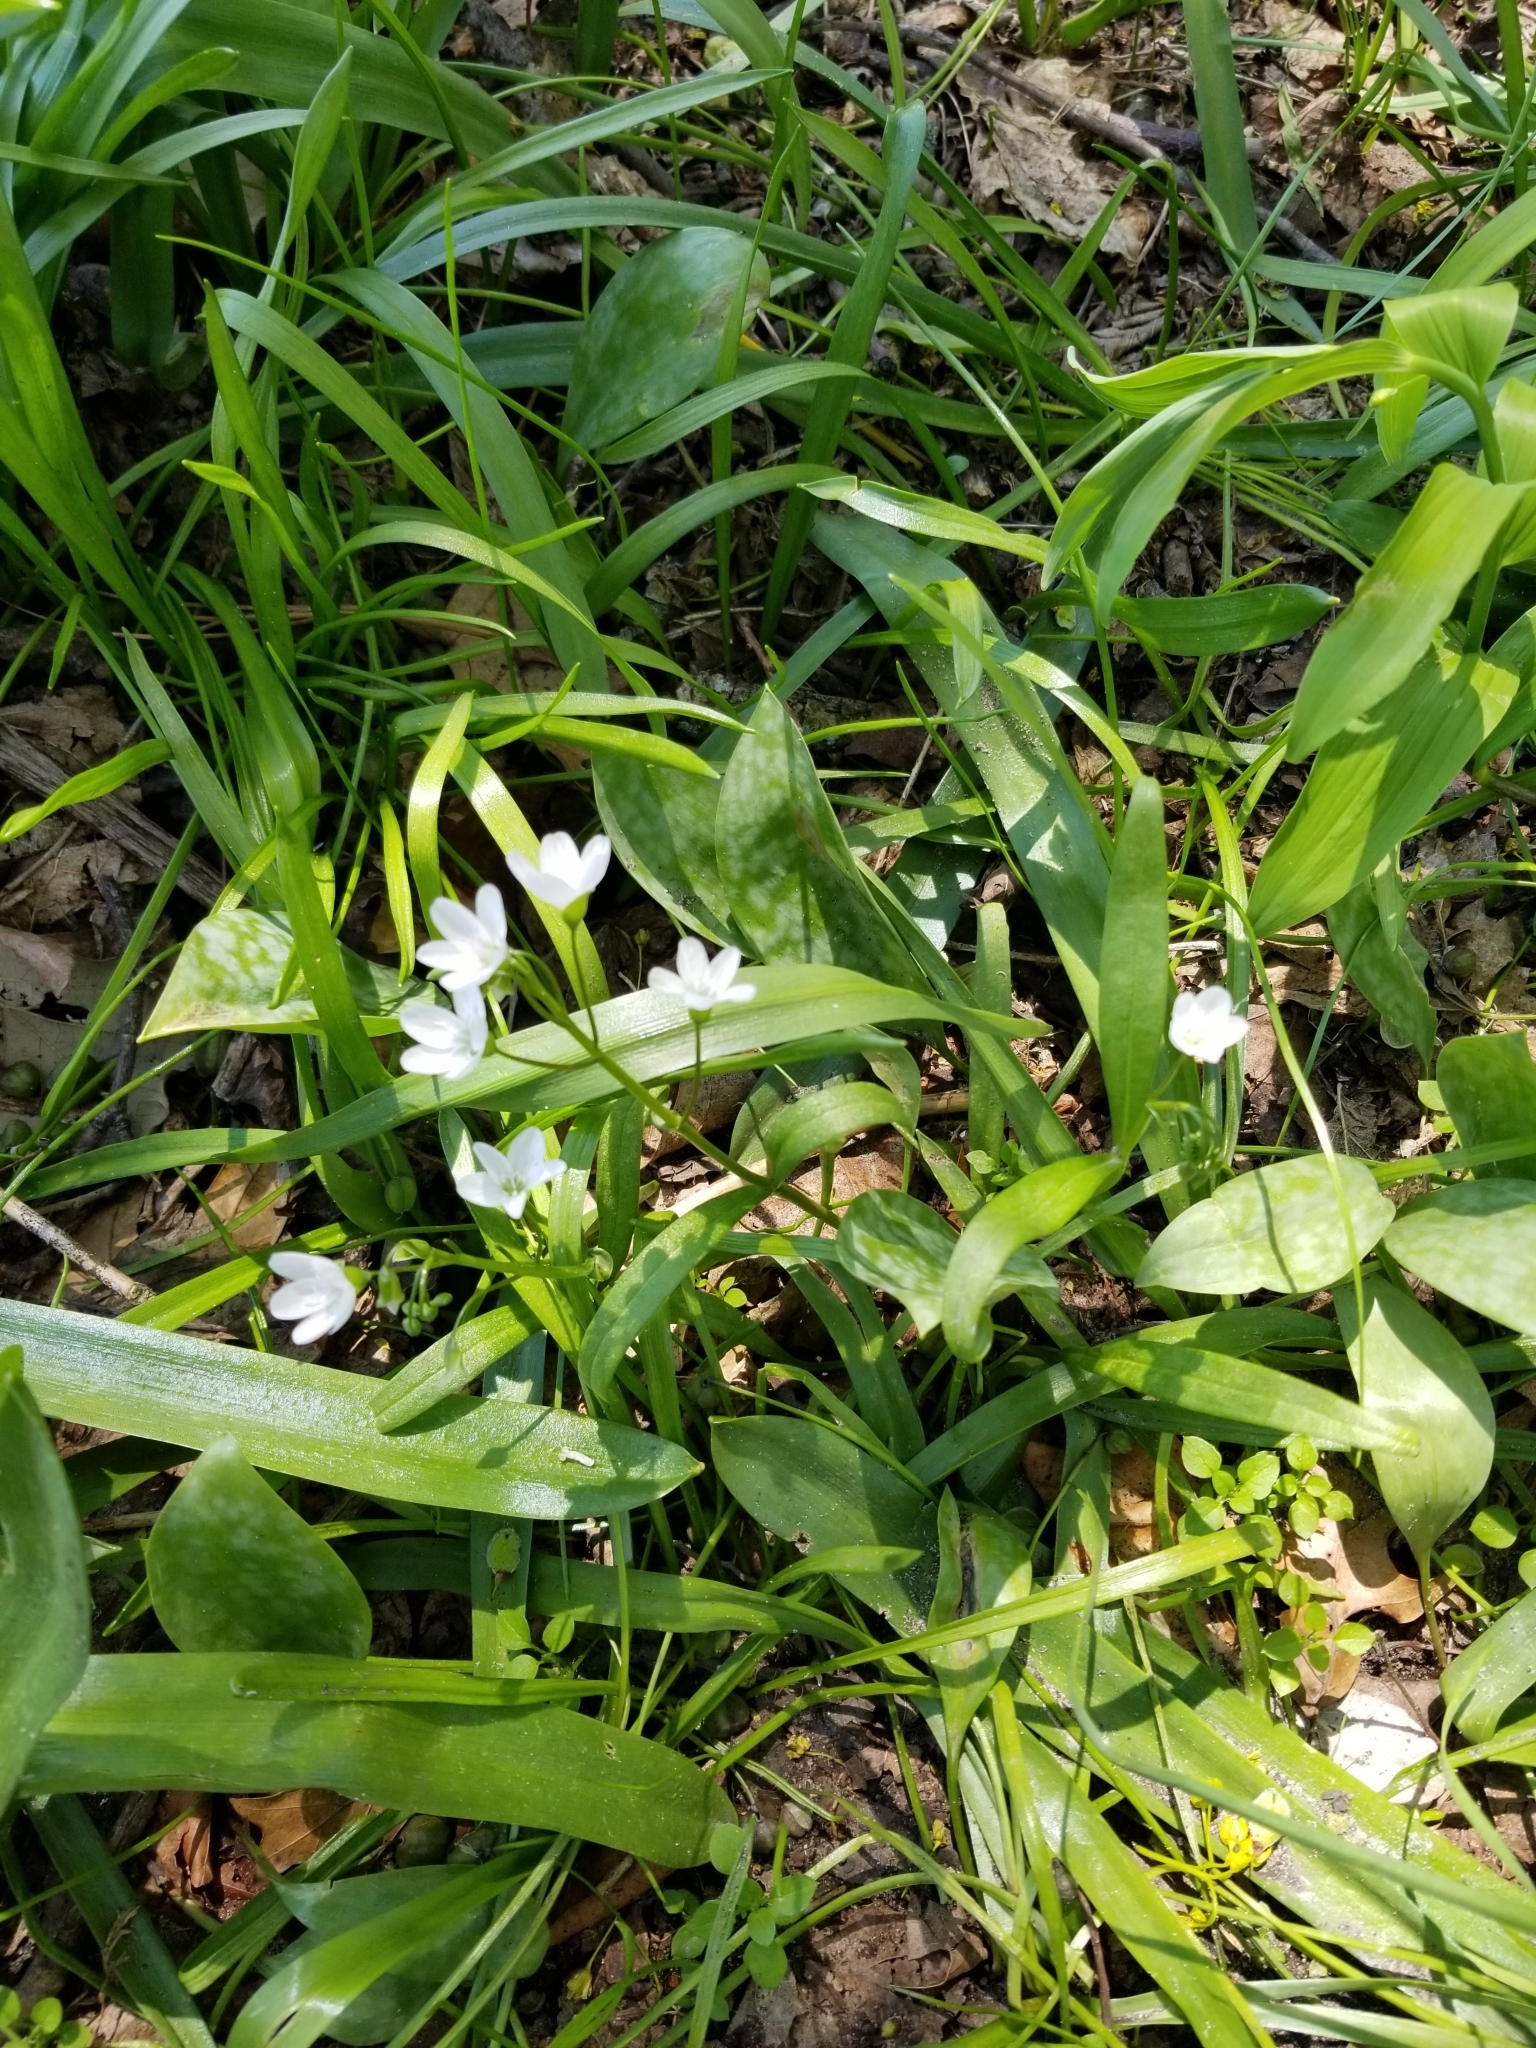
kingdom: Plantae
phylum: Tracheophyta
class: Magnoliopsida
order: Caryophyllales
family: Montiaceae
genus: Claytonia
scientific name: Claytonia virginica
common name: Virginia springbeauty
